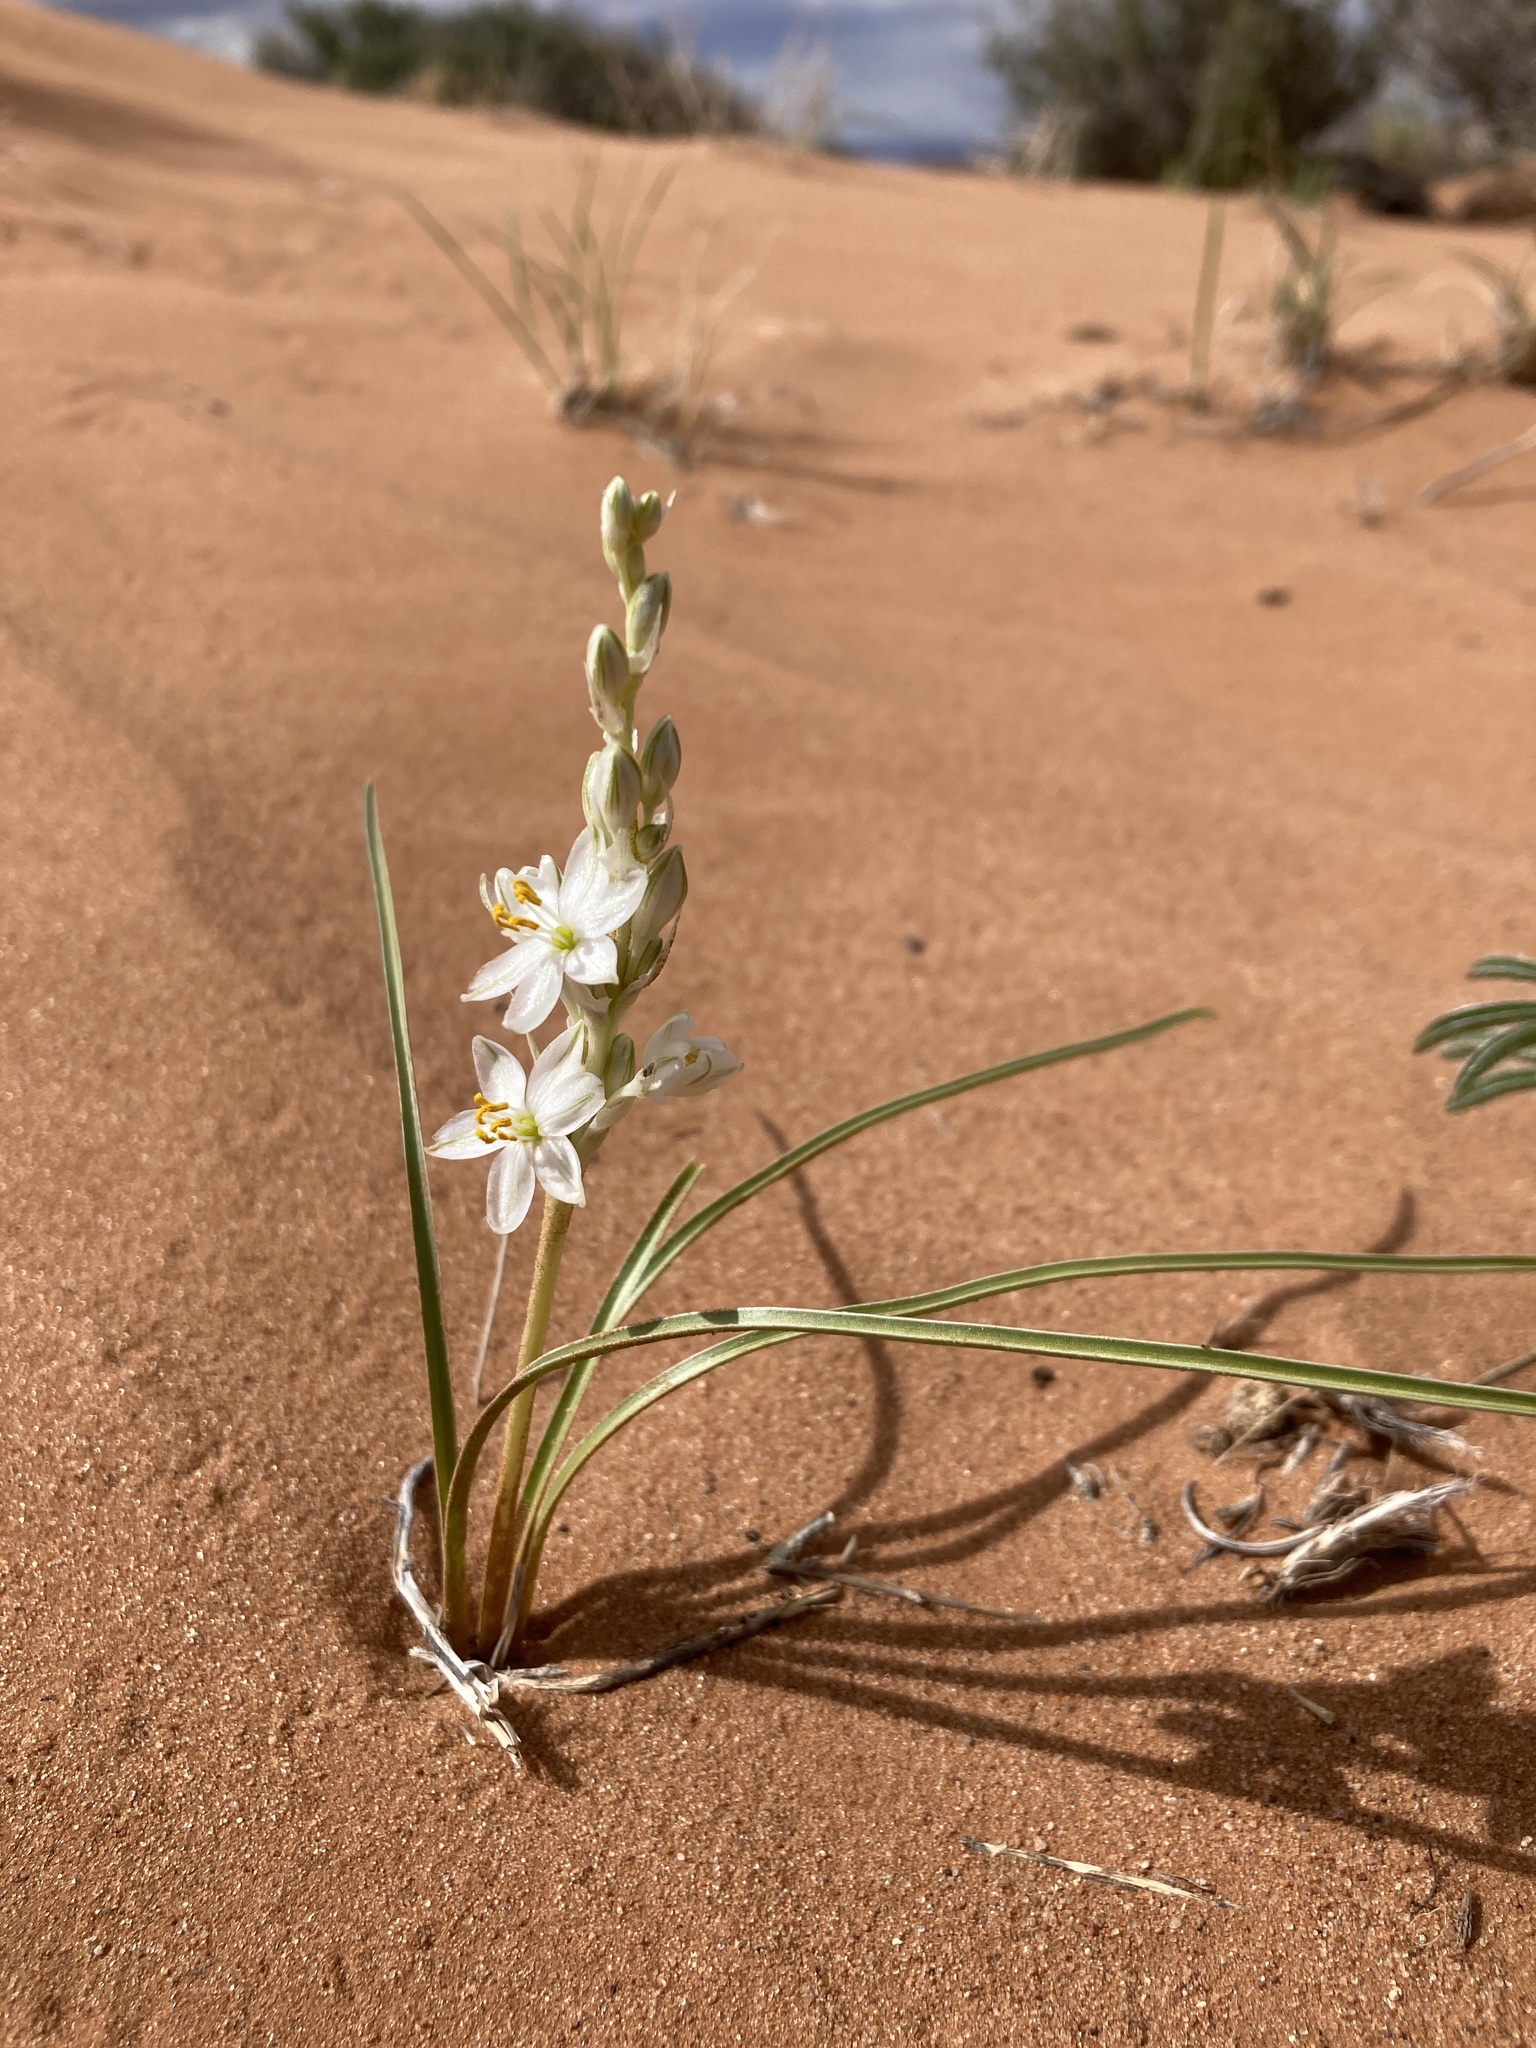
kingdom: Plantae
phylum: Tracheophyta
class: Liliopsida
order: Asparagales
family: Asparagaceae
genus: Eremocrinum
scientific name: Eremocrinum albomarginatum
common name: Sand-lily
